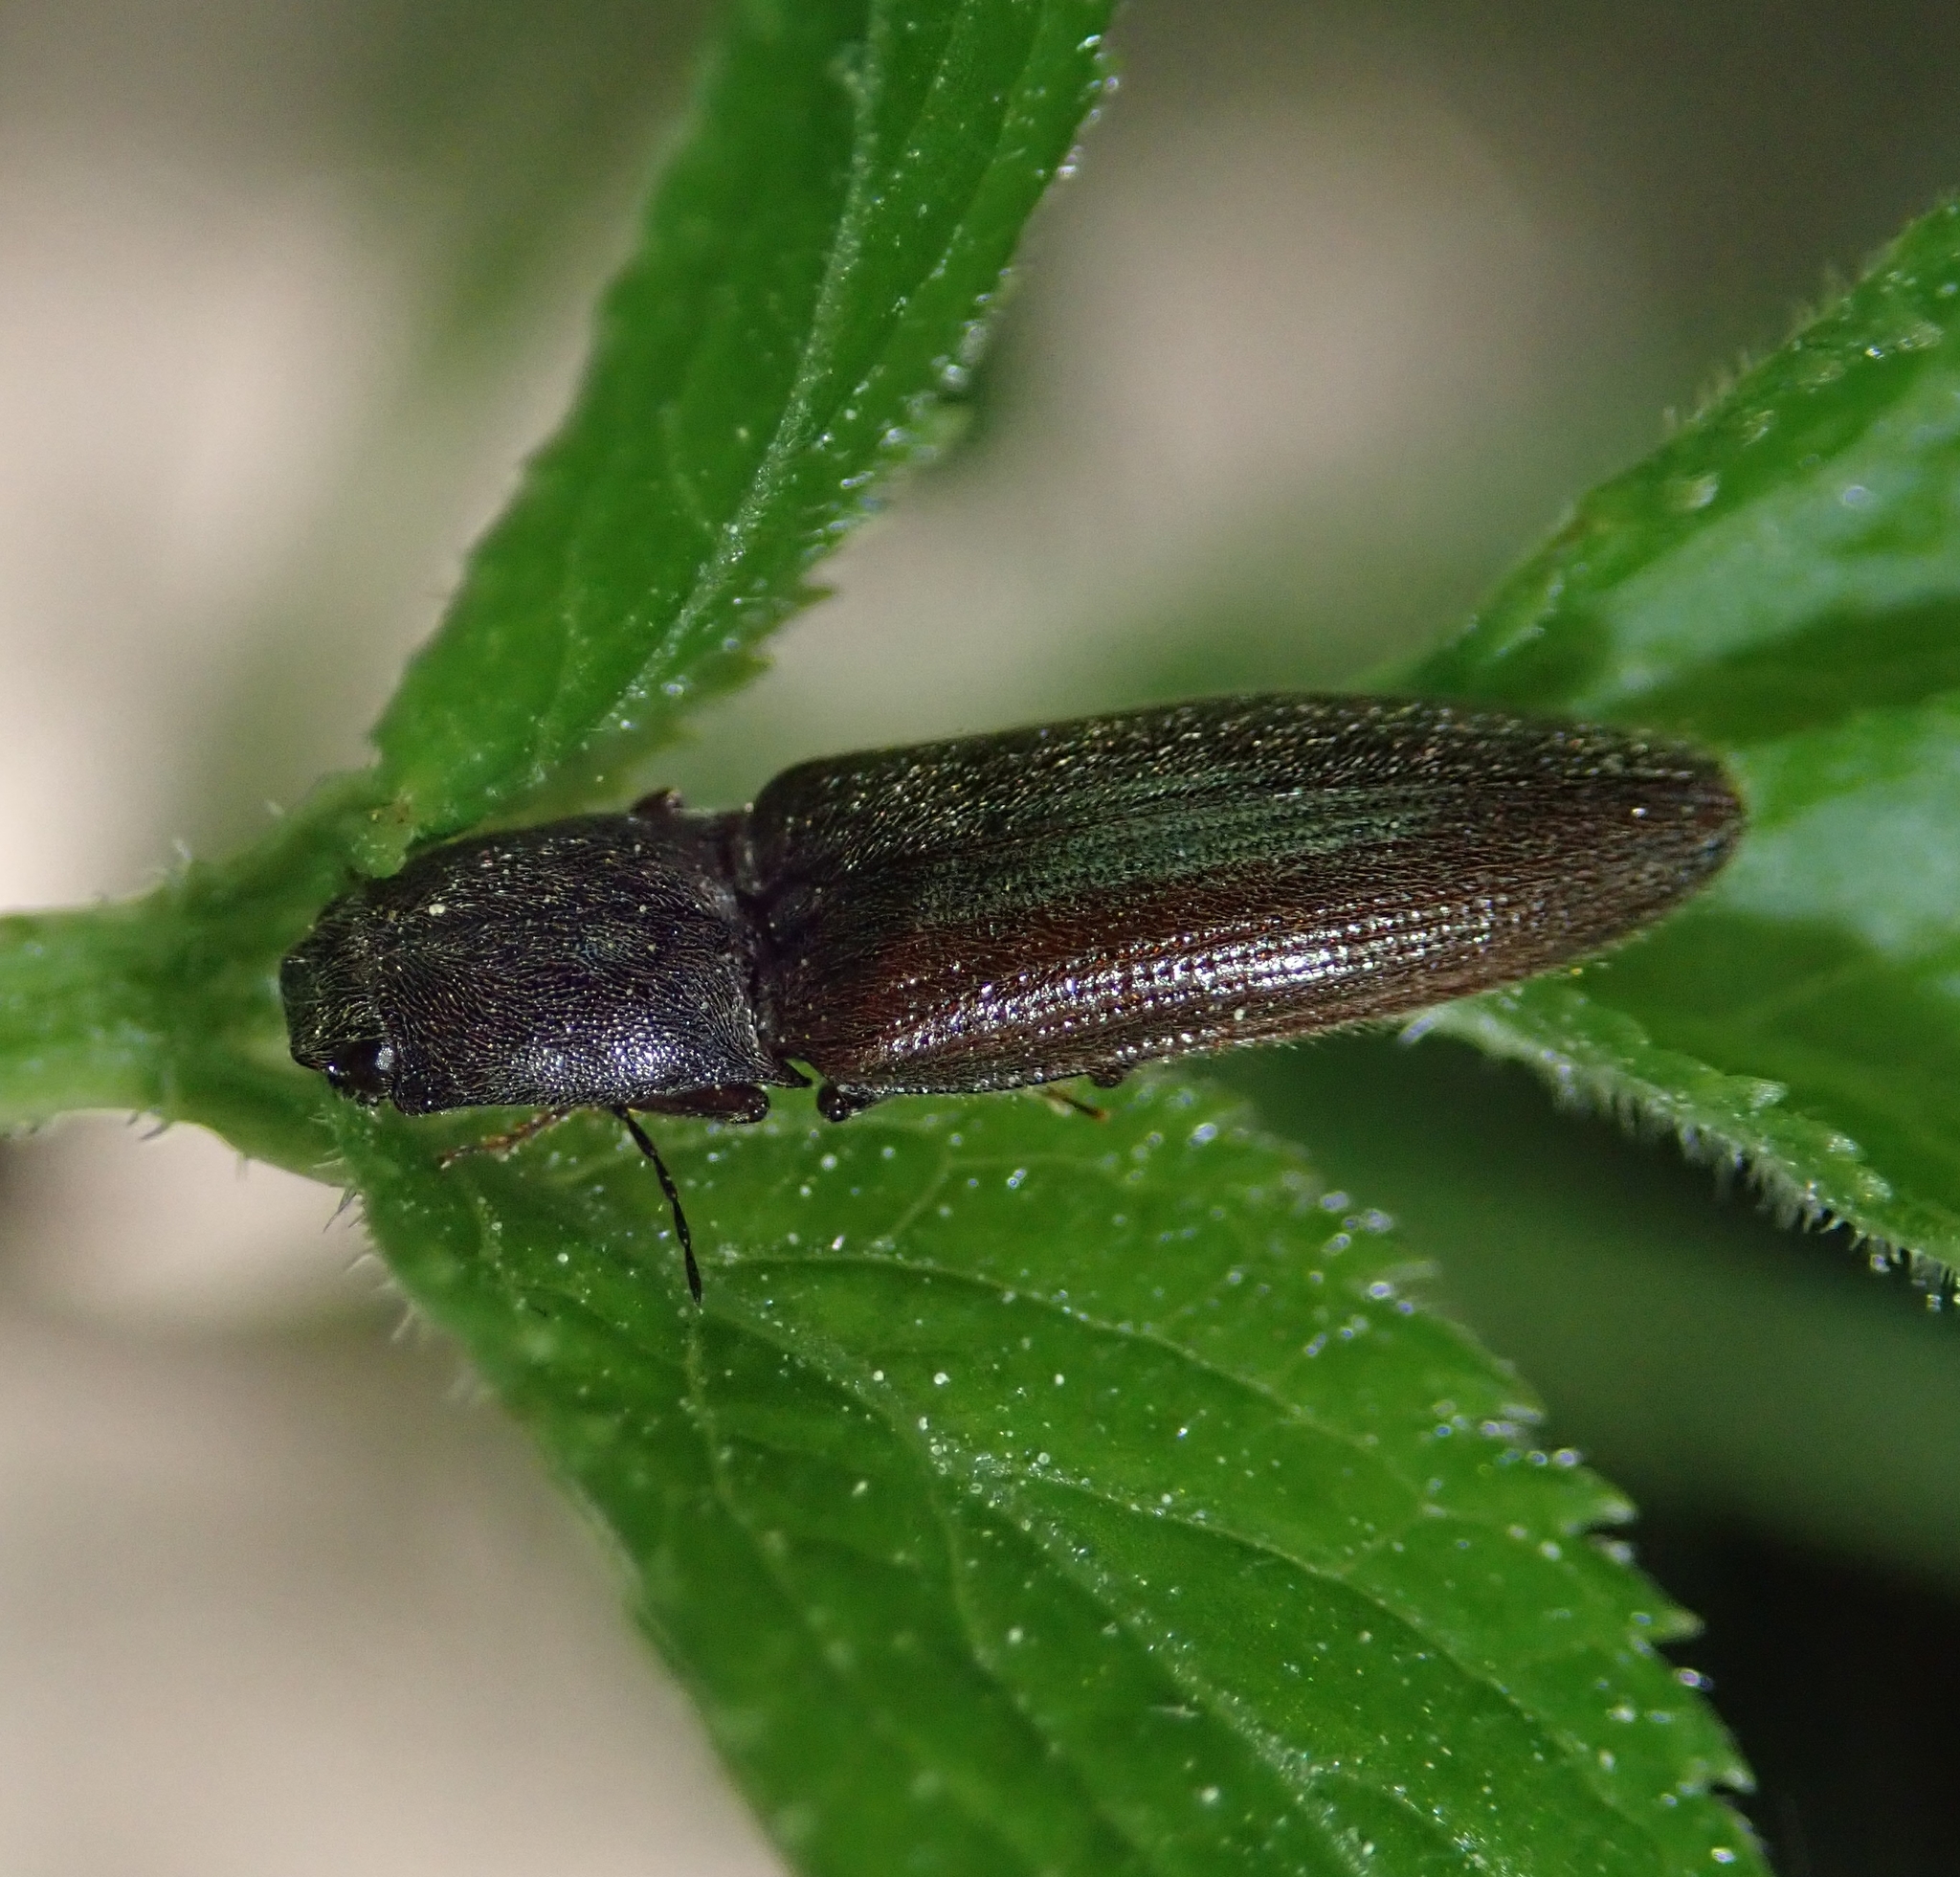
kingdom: Animalia
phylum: Arthropoda
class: Insecta
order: Coleoptera
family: Elateridae
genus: Athous
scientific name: Athous haemorrhoidalis
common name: Red-brown click beetle
